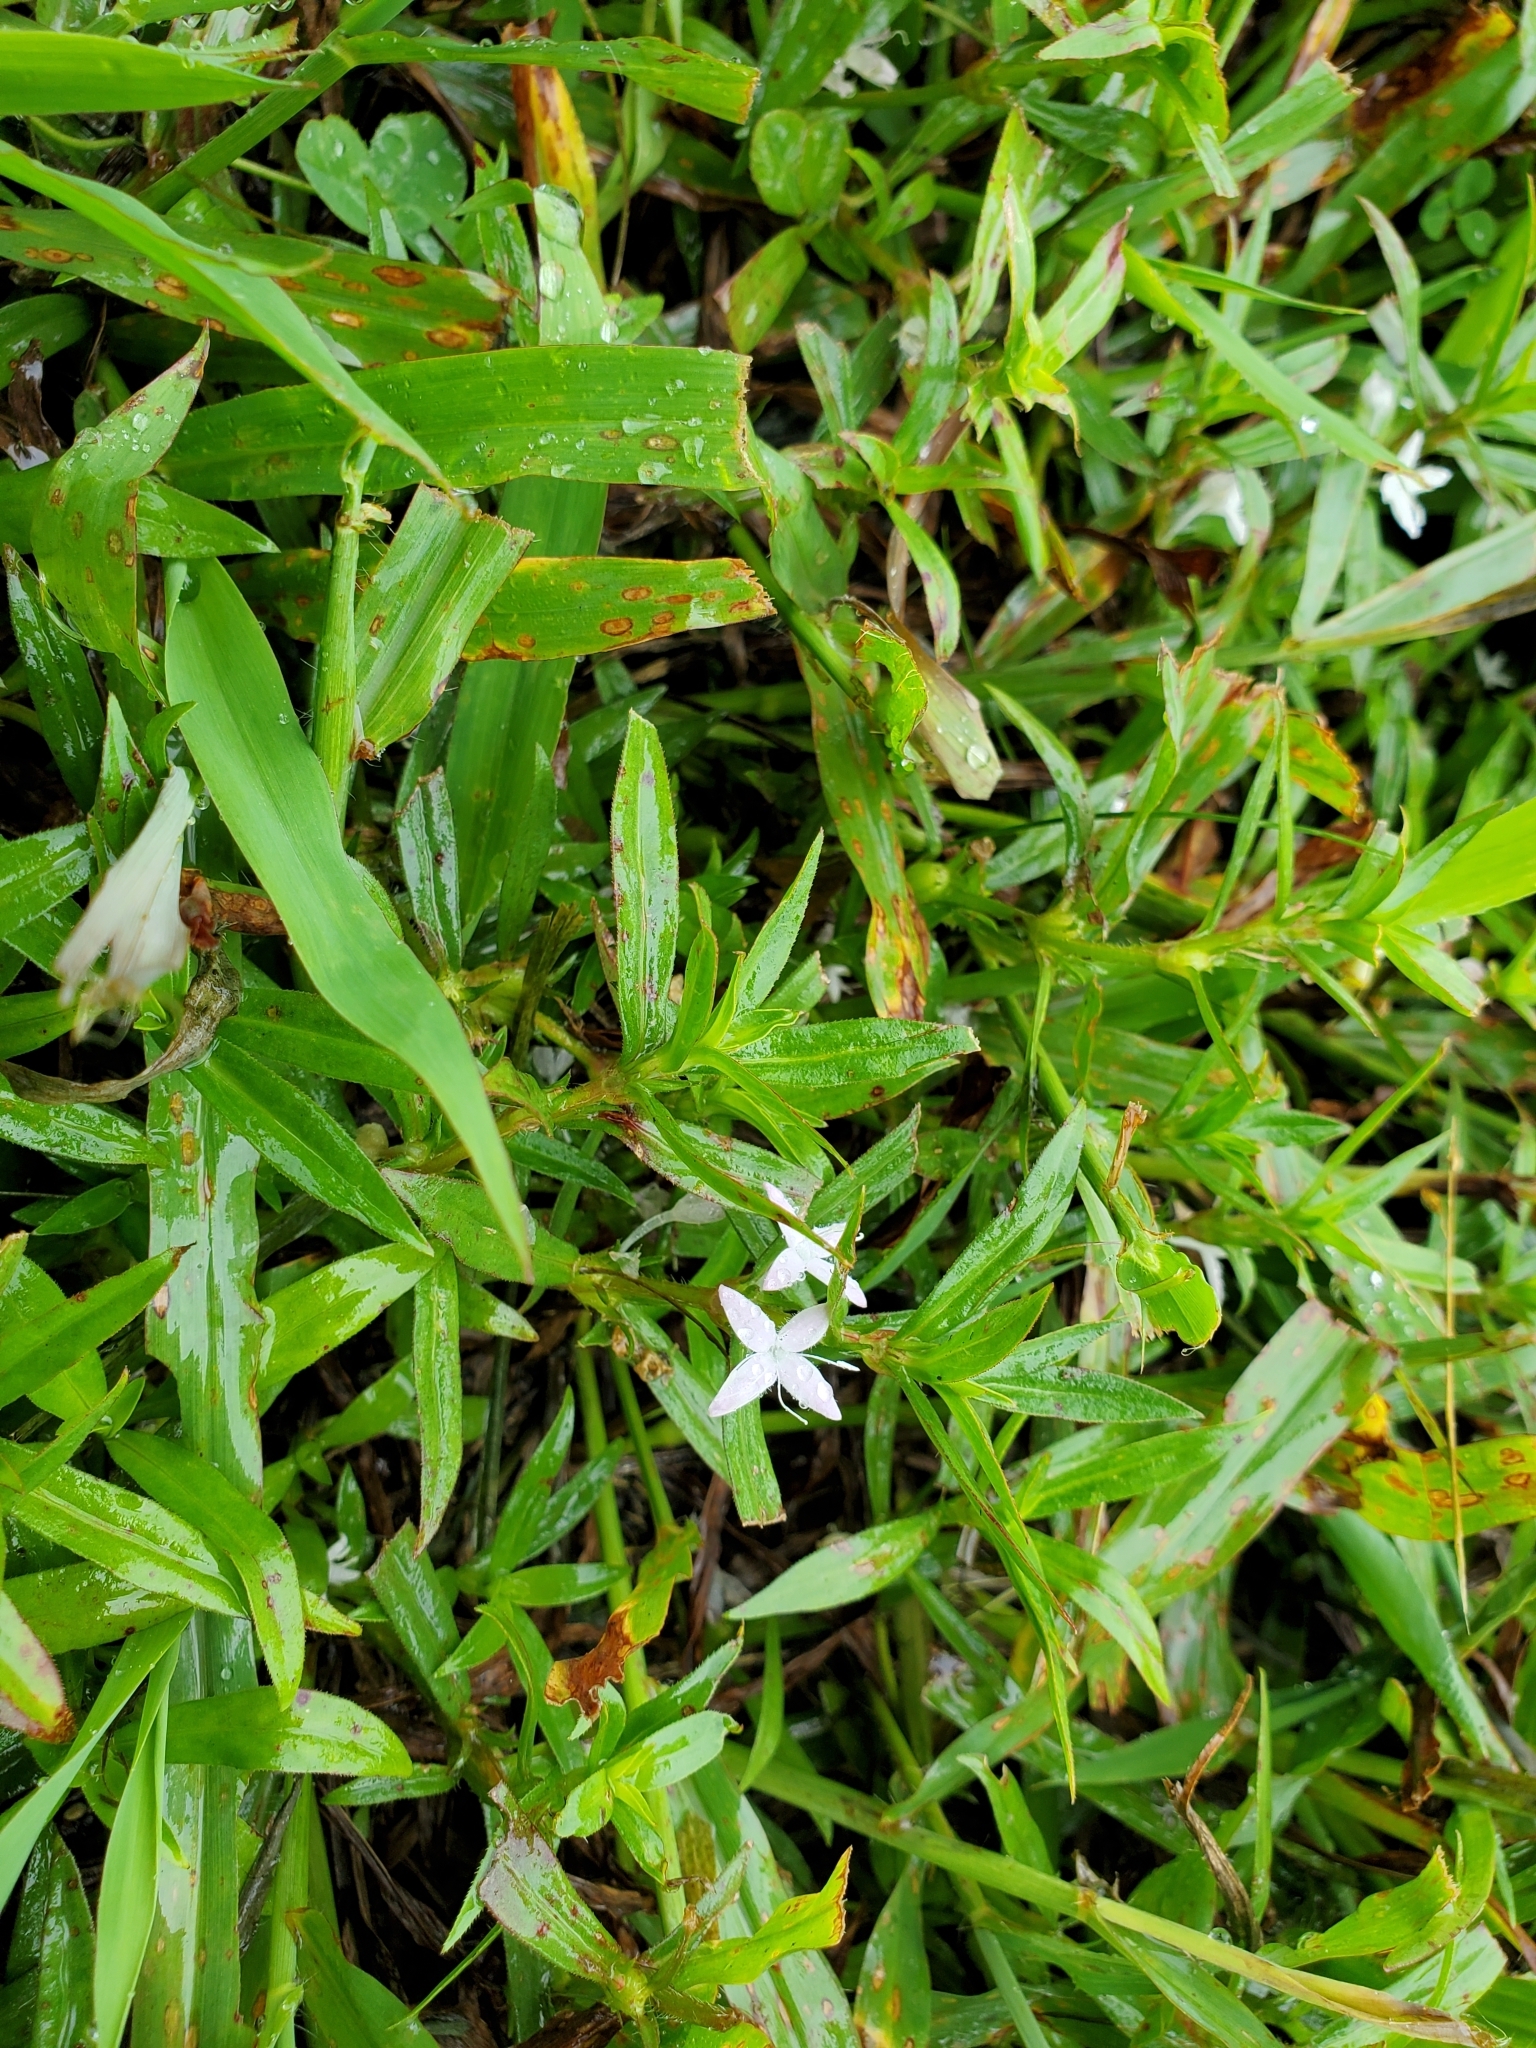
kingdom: Plantae
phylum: Tracheophyta
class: Magnoliopsida
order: Gentianales
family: Rubiaceae
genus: Diodia
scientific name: Diodia virginiana
